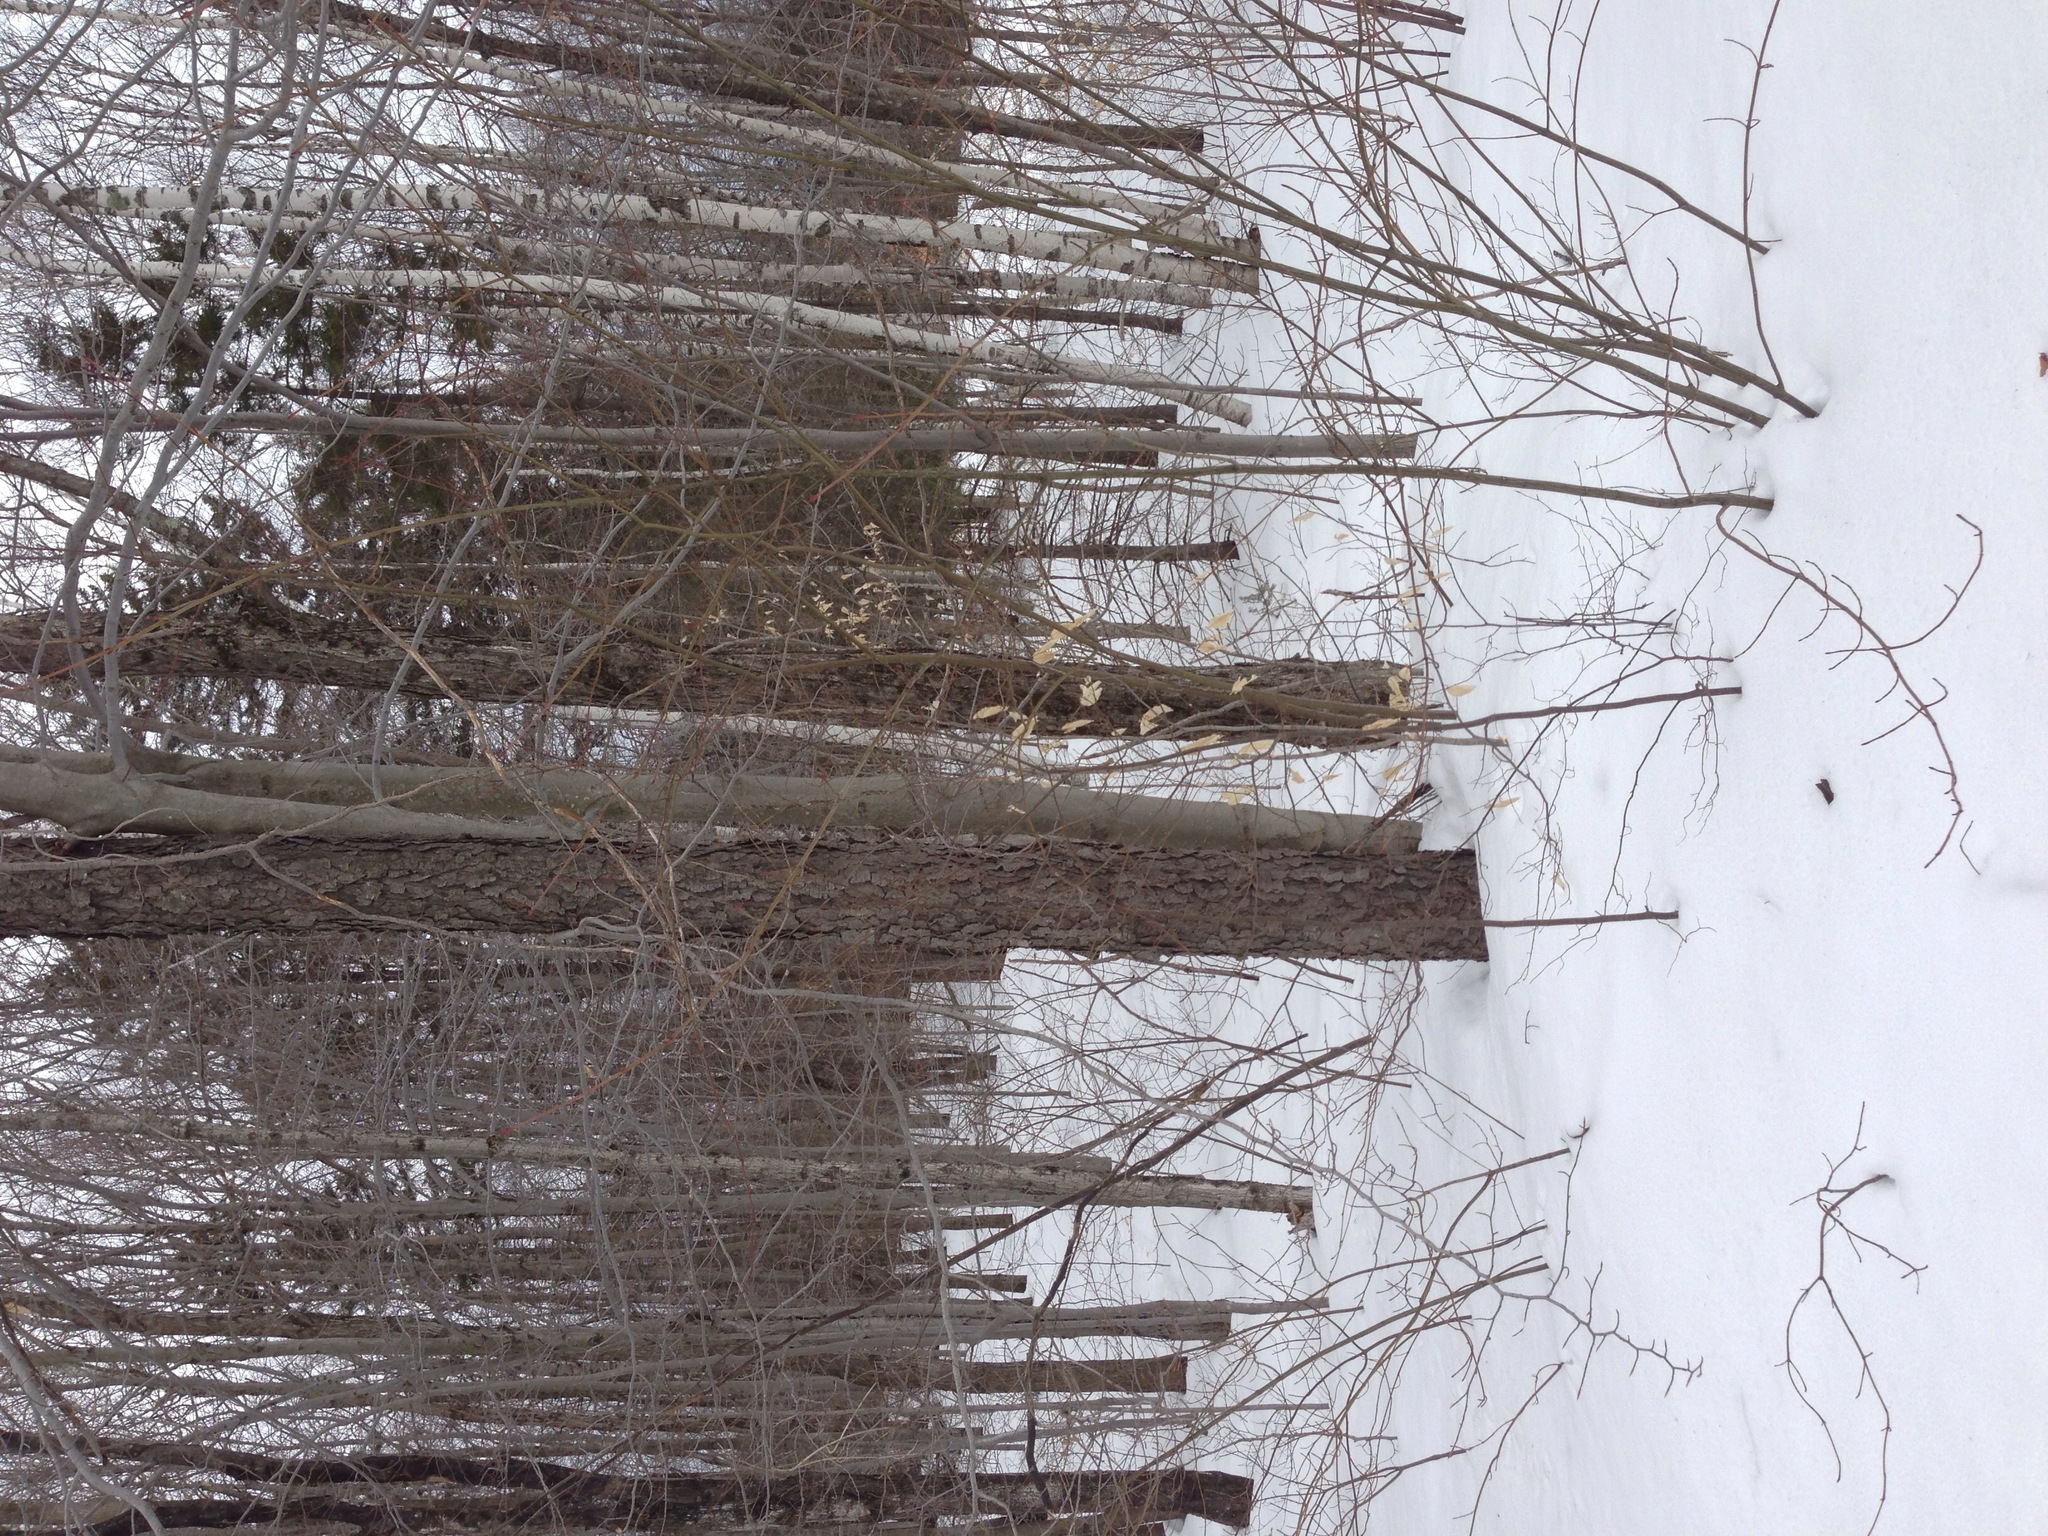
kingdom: Plantae
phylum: Tracheophyta
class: Magnoliopsida
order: Rosales
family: Rosaceae
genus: Prunus
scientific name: Prunus serotina
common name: Black cherry
